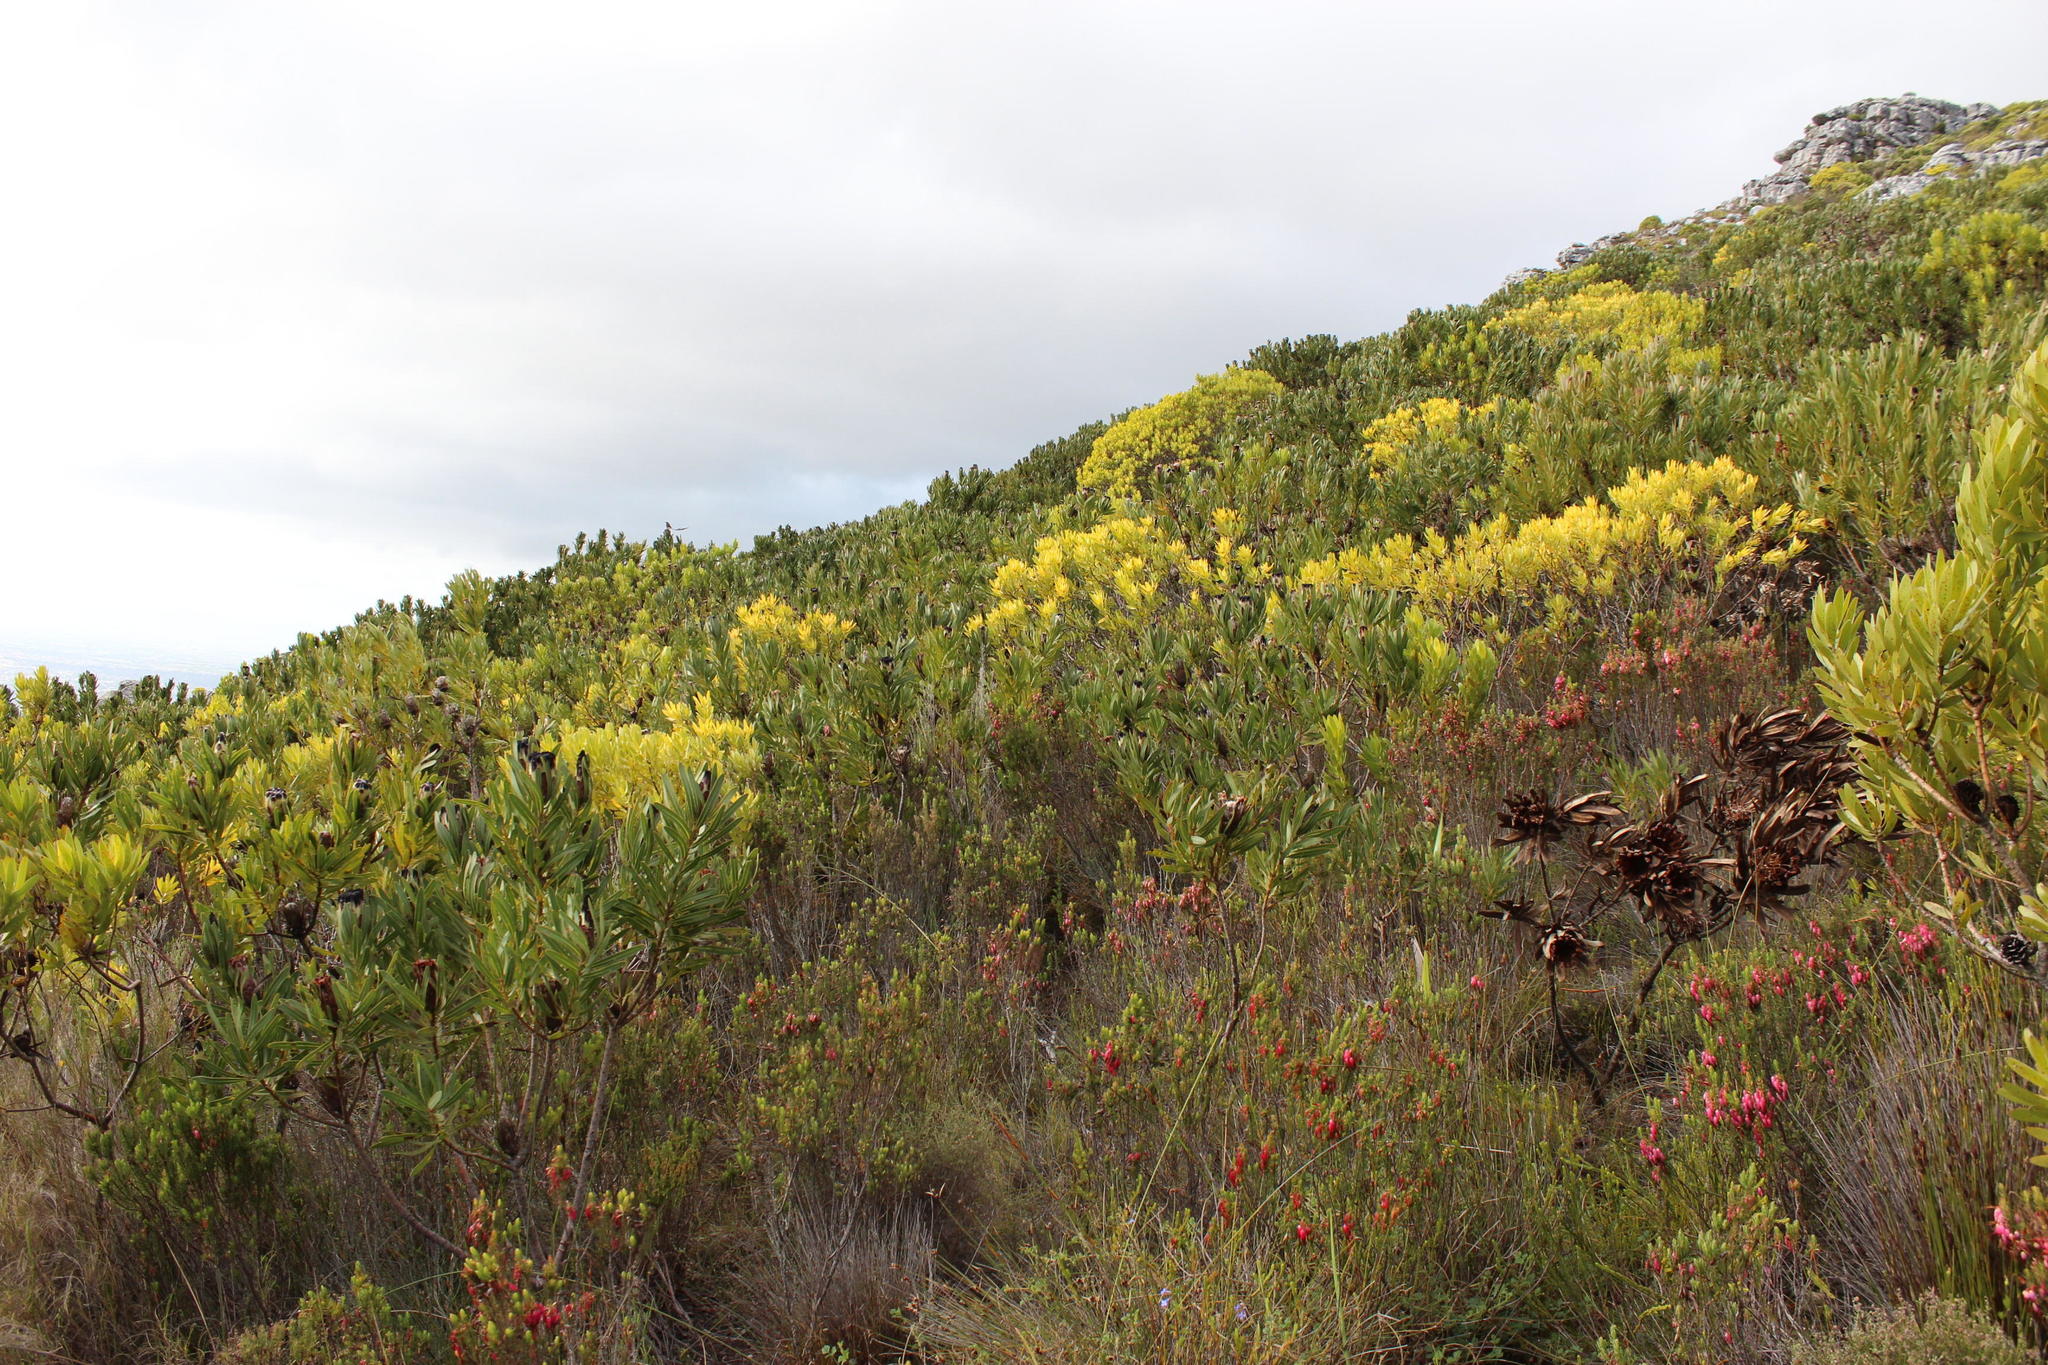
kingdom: Plantae
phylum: Tracheophyta
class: Magnoliopsida
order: Proteales
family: Proteaceae
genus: Leucadendron
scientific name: Leucadendron laureolum
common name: Golden sunshinebush
